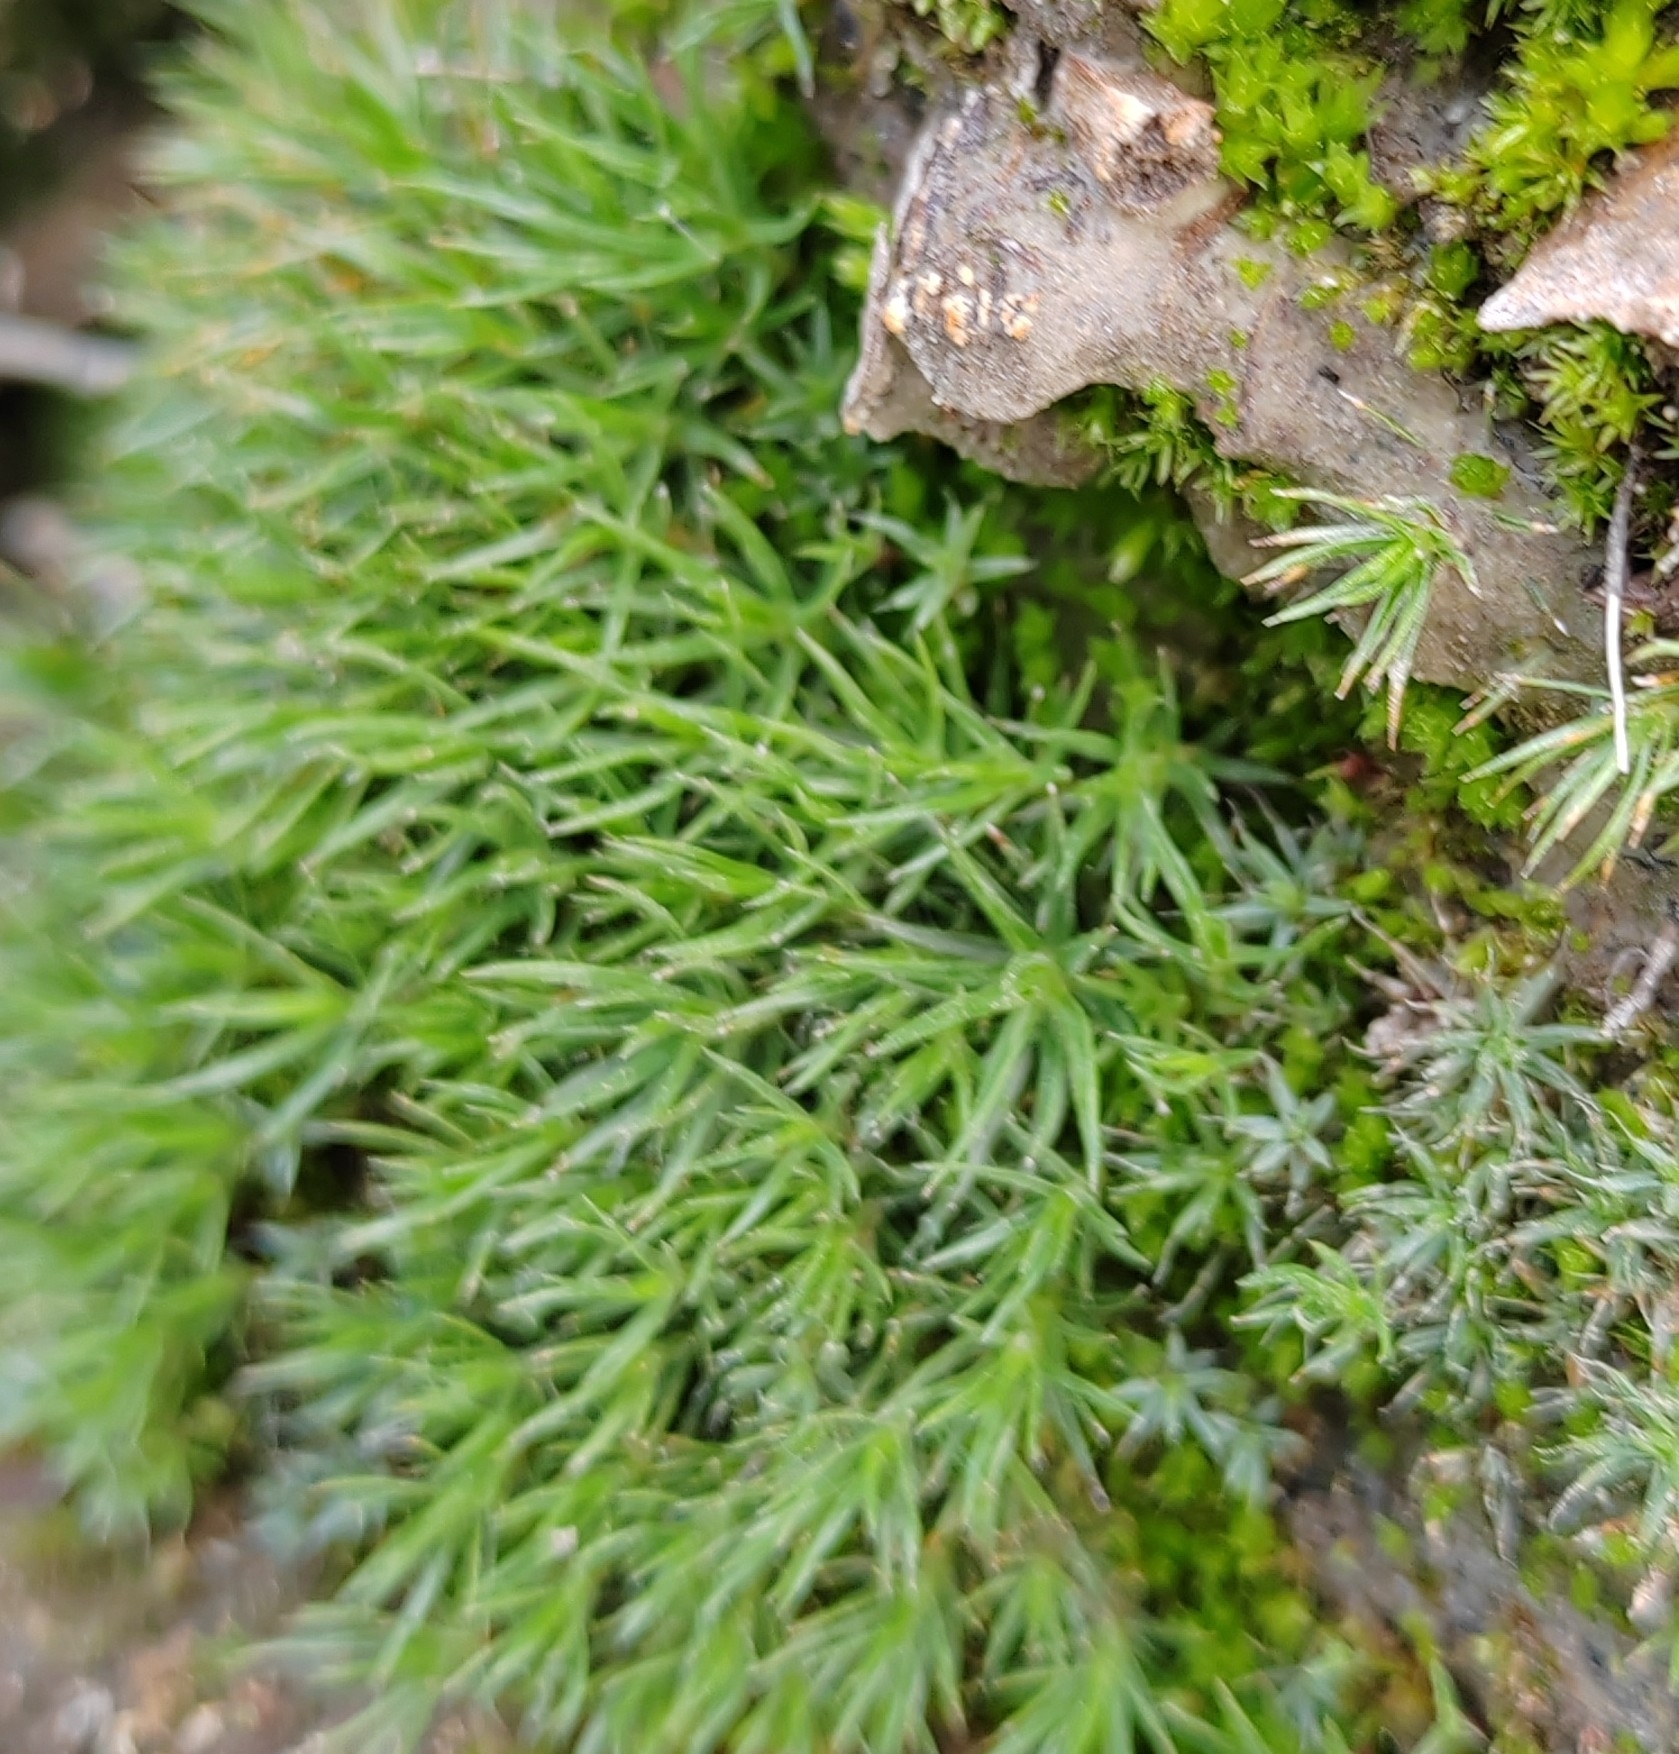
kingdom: Plantae
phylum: Bryophyta
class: Polytrichopsida
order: Polytrichales
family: Polytrichaceae
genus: Polytrichum
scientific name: Polytrichum piliferum
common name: Bristly haircap
